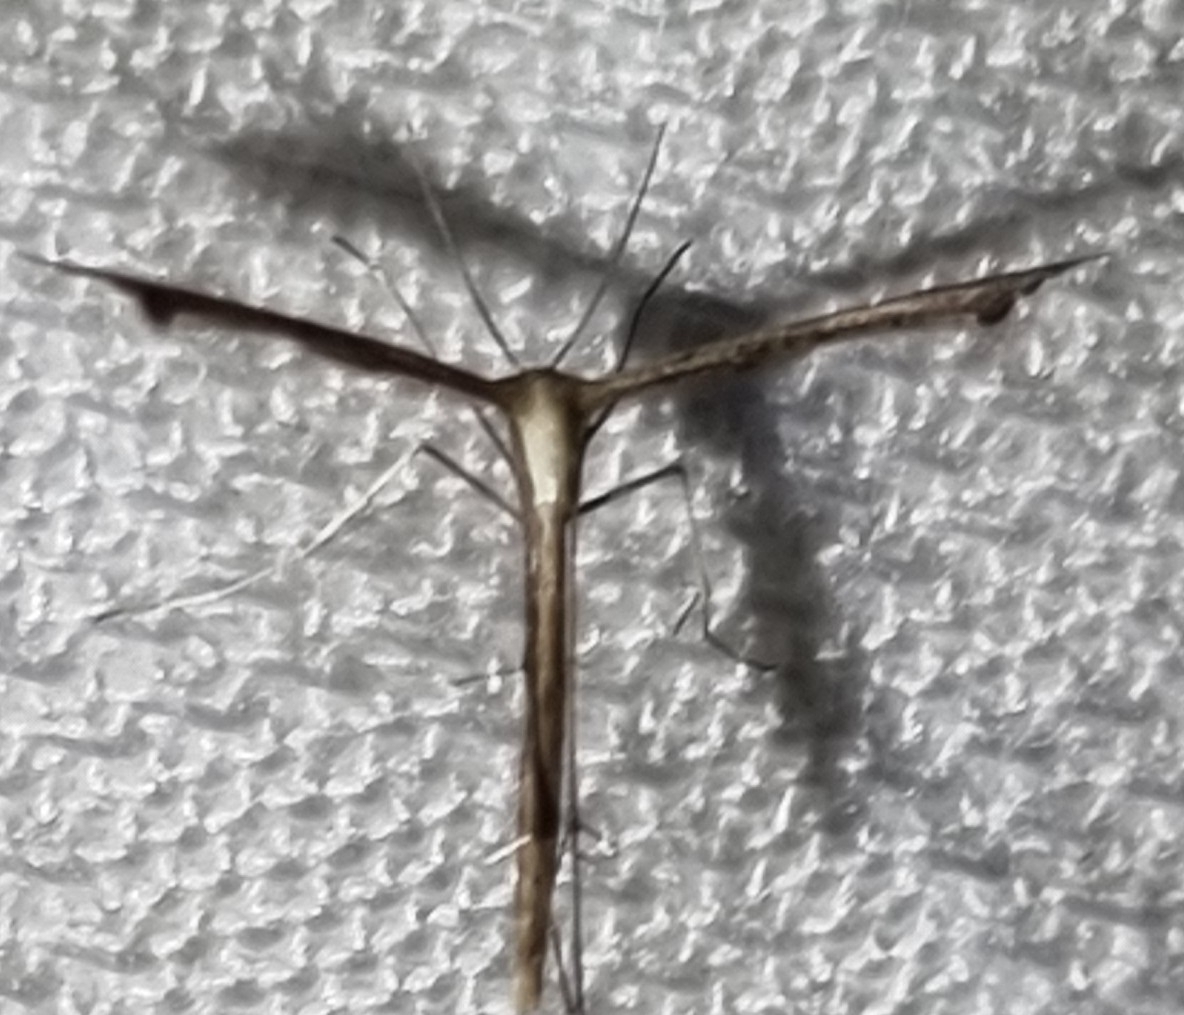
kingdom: Animalia
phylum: Arthropoda
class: Insecta
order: Lepidoptera
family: Pterophoridae
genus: Stenoptilodes
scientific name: Stenoptilodes taprobanes
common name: Moth
